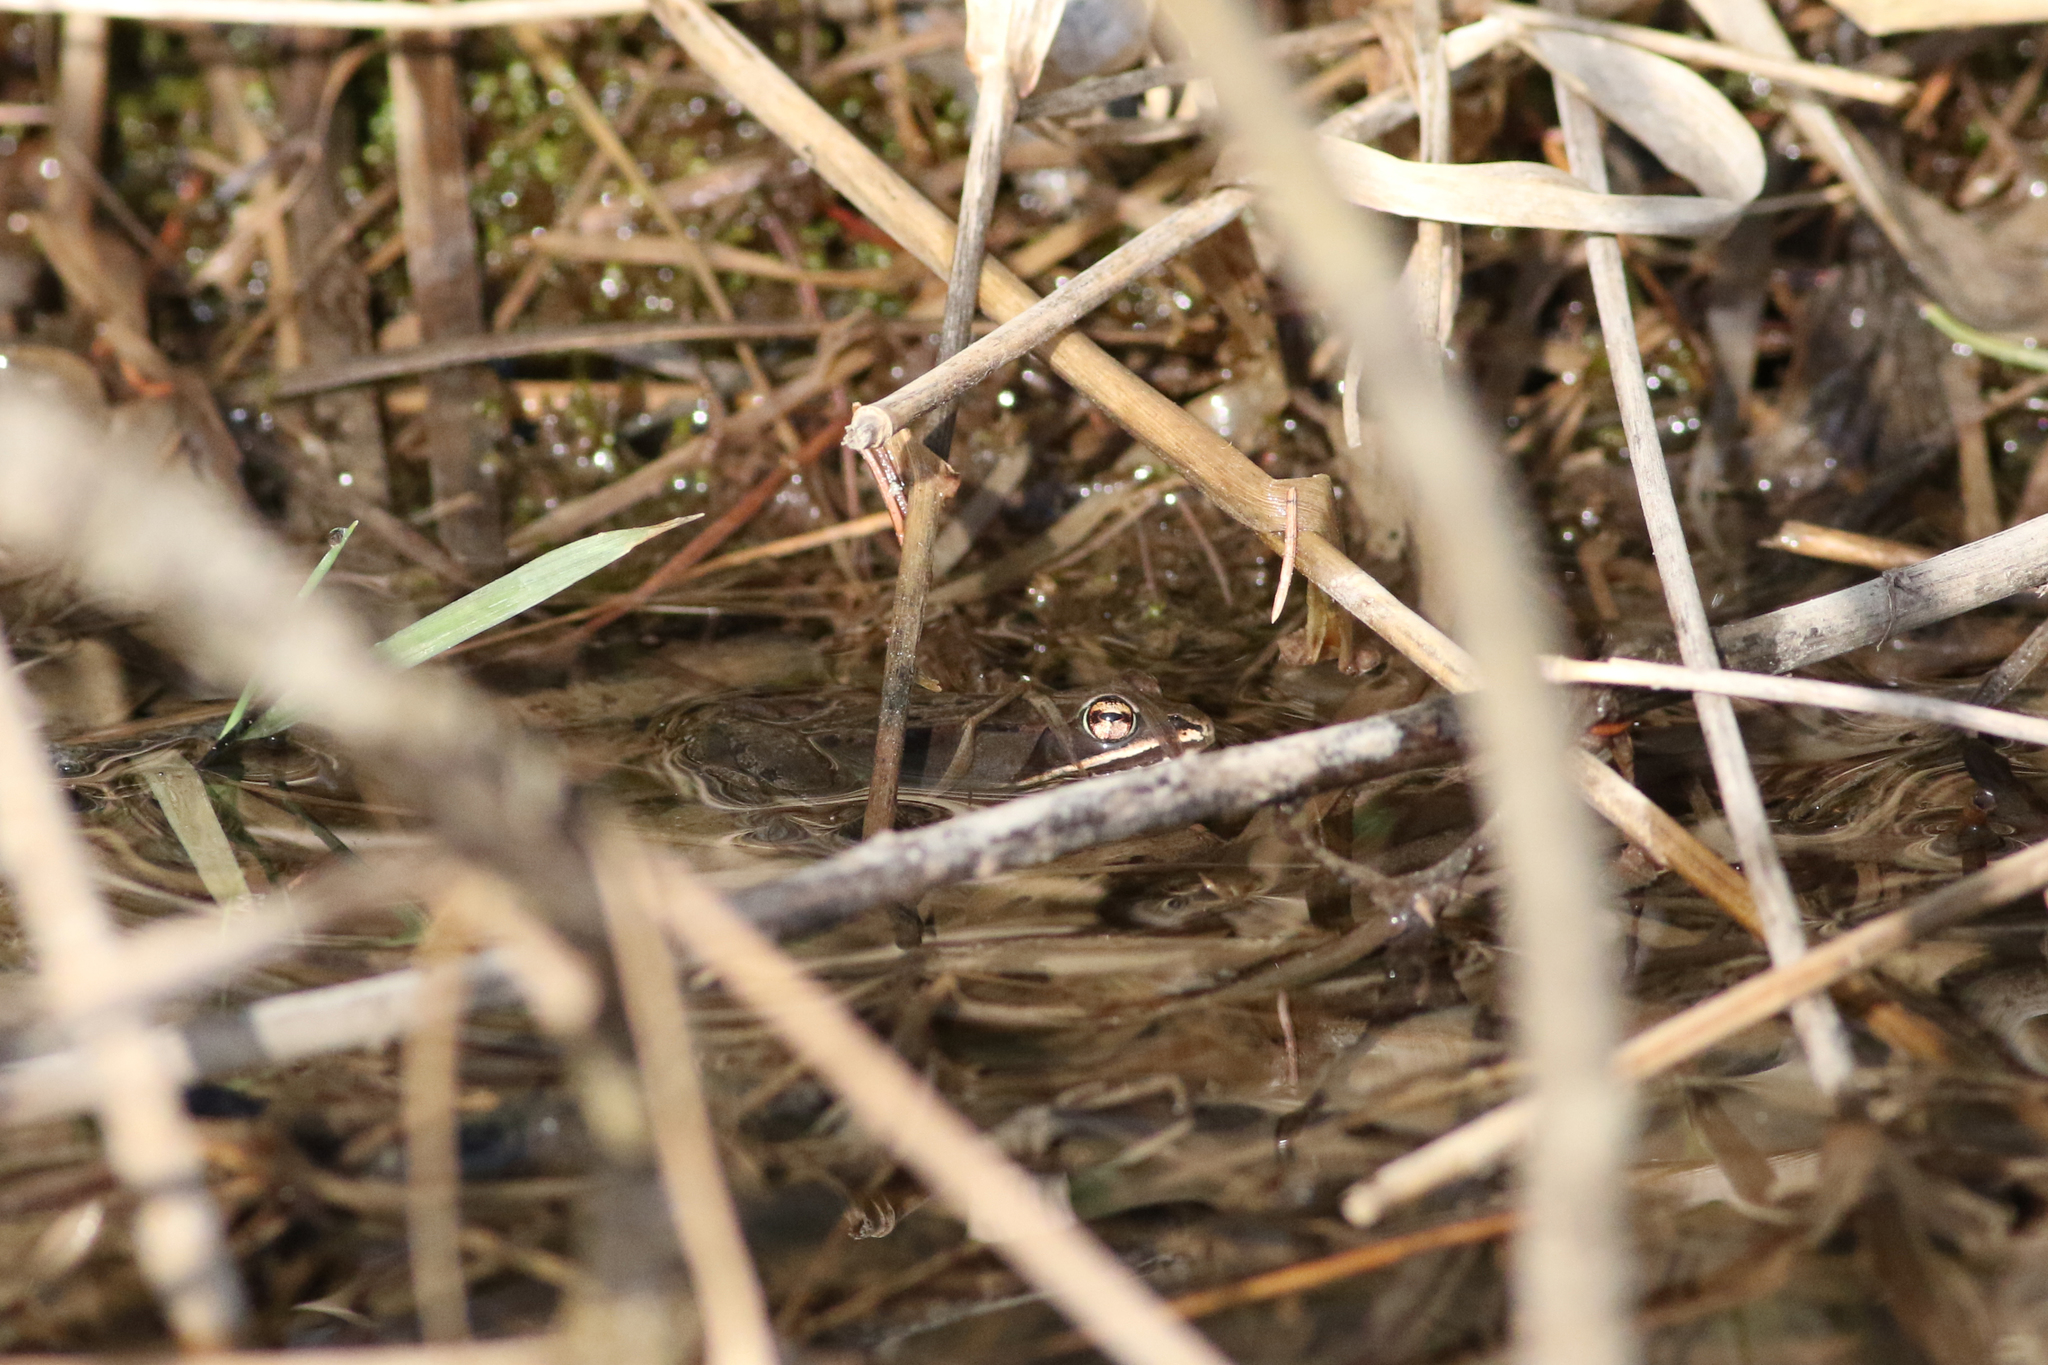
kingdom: Animalia
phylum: Chordata
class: Amphibia
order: Anura
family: Ranidae
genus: Lithobates
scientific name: Lithobates sylvaticus
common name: Wood frog
